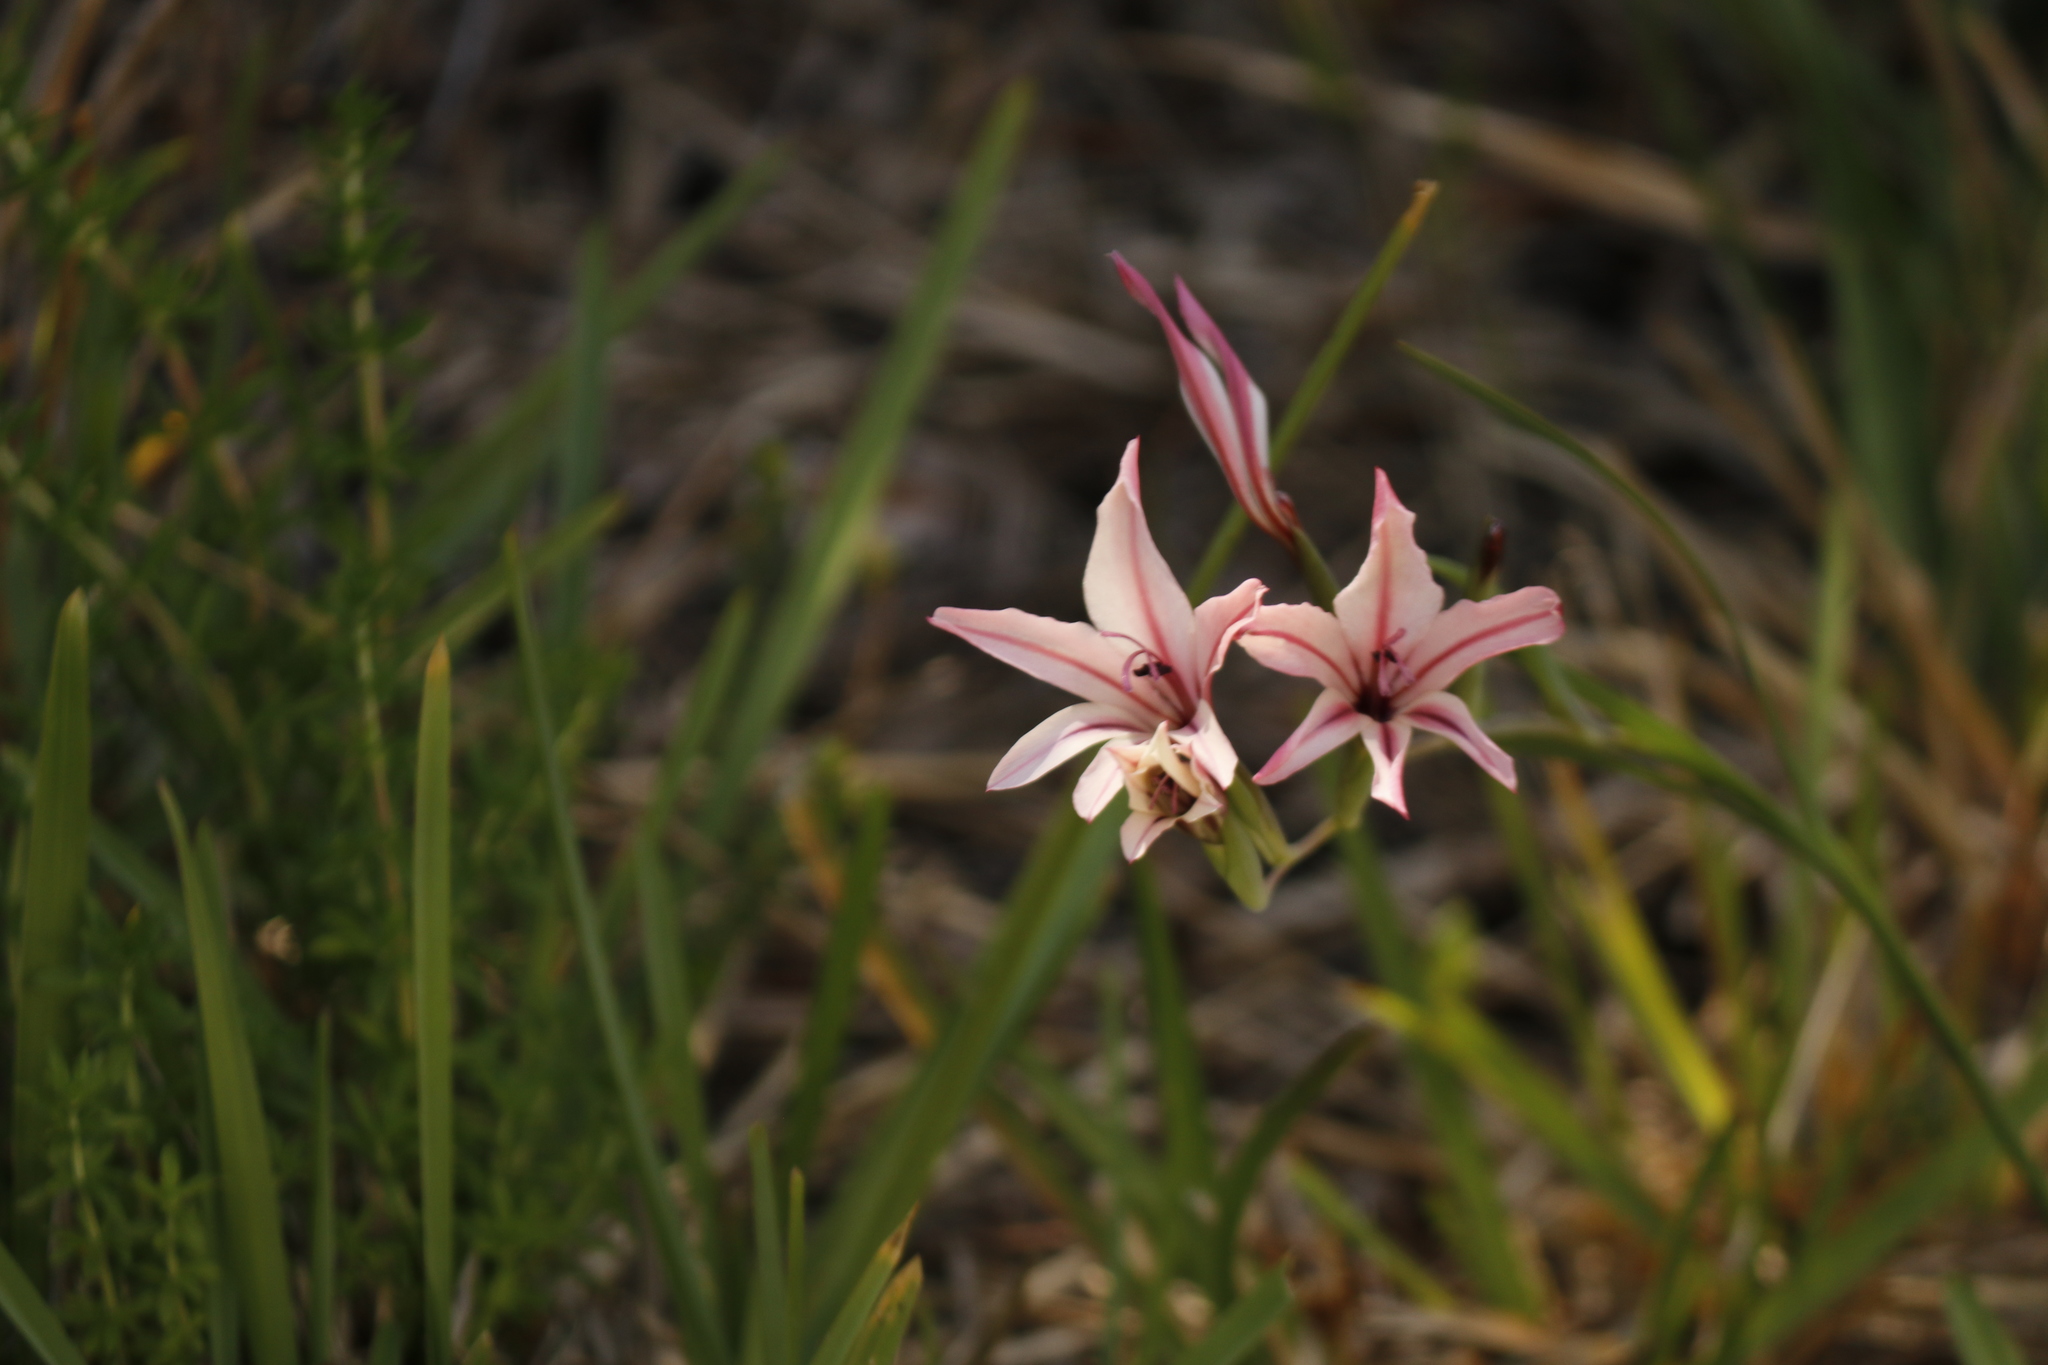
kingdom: Plantae
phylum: Tracheophyta
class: Liliopsida
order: Asparagales
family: Iridaceae
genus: Gladiolus
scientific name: Gladiolus floribundus
